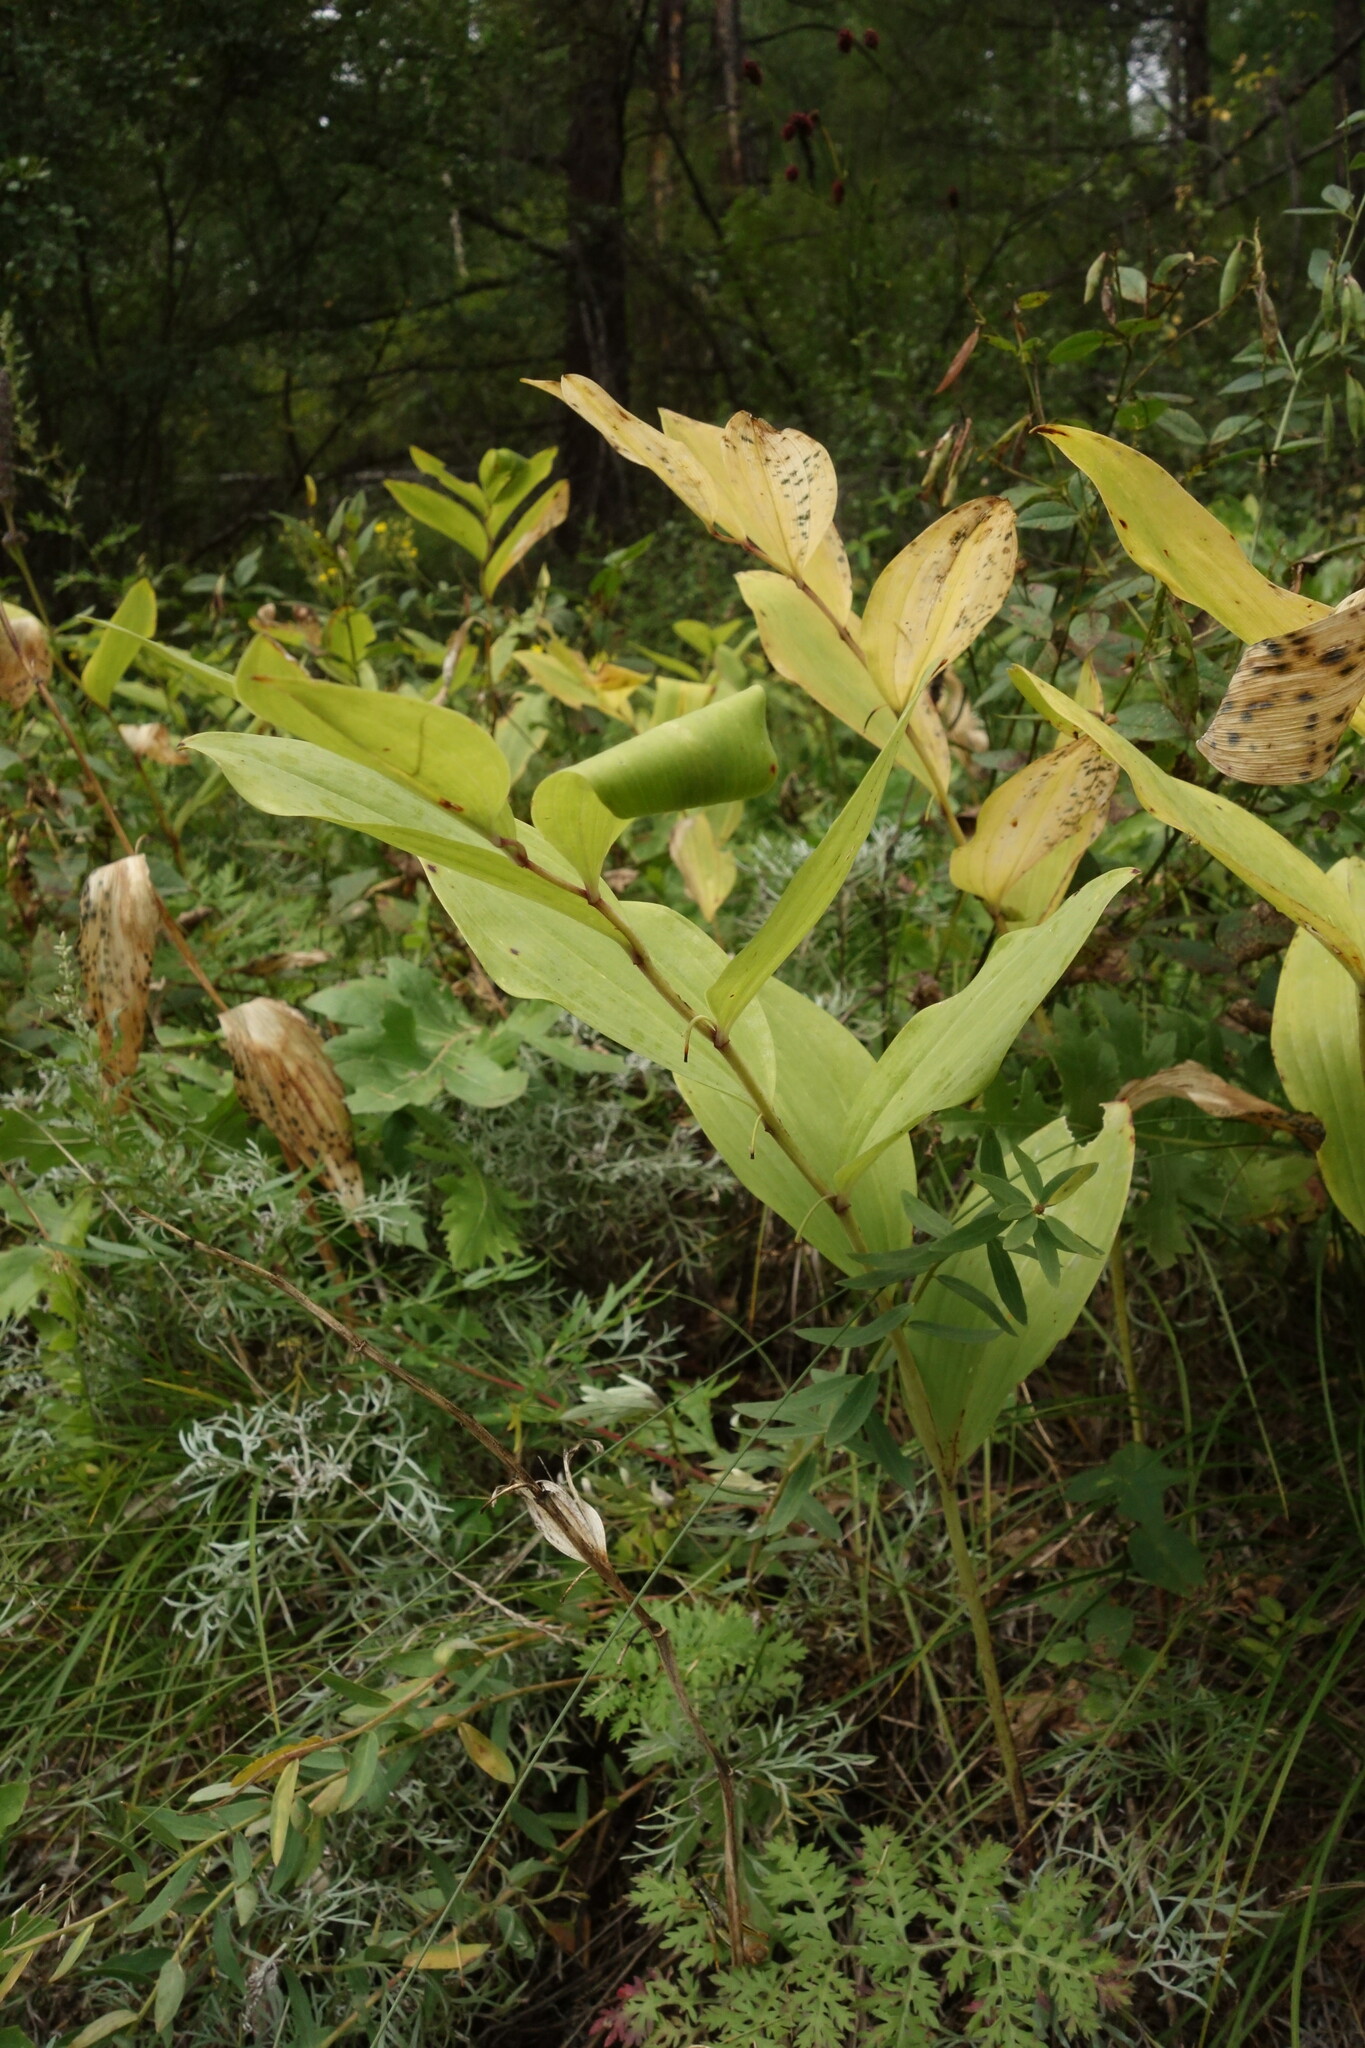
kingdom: Plantae
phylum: Tracheophyta
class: Liliopsida
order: Asparagales
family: Asparagaceae
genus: Polygonatum
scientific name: Polygonatum odoratum
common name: Angular solomon's-seal
